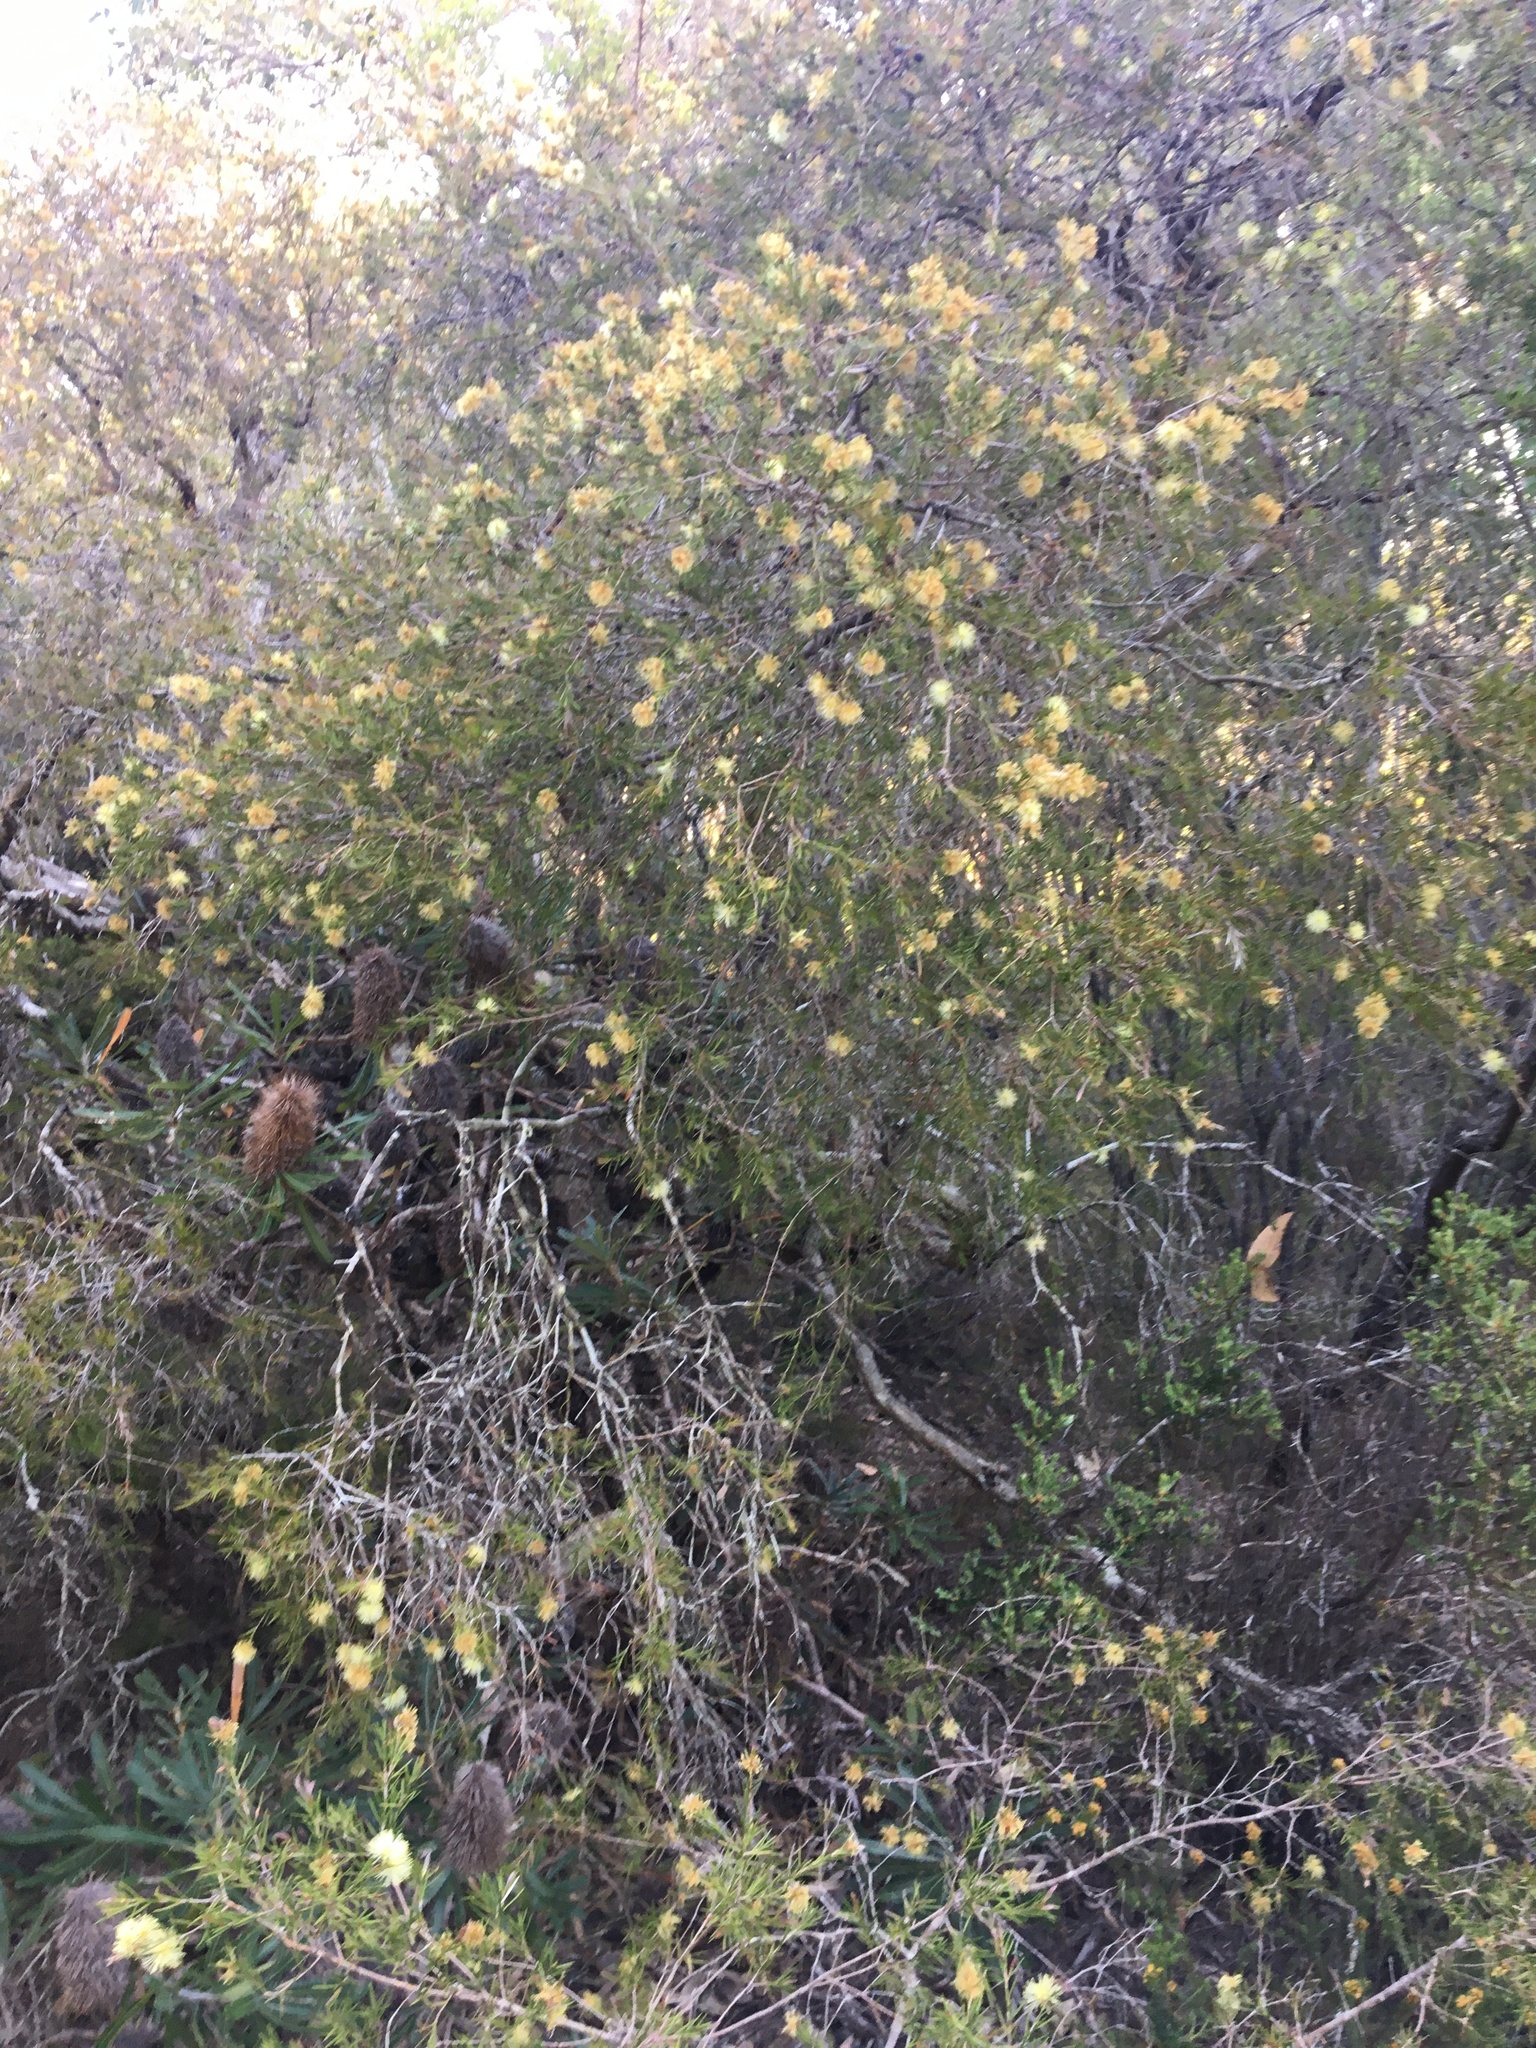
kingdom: Plantae
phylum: Tracheophyta
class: Magnoliopsida
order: Myrtales
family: Myrtaceae
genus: Melaleuca
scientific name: Melaleuca nodosa
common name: Prickly-leaf paperbark
